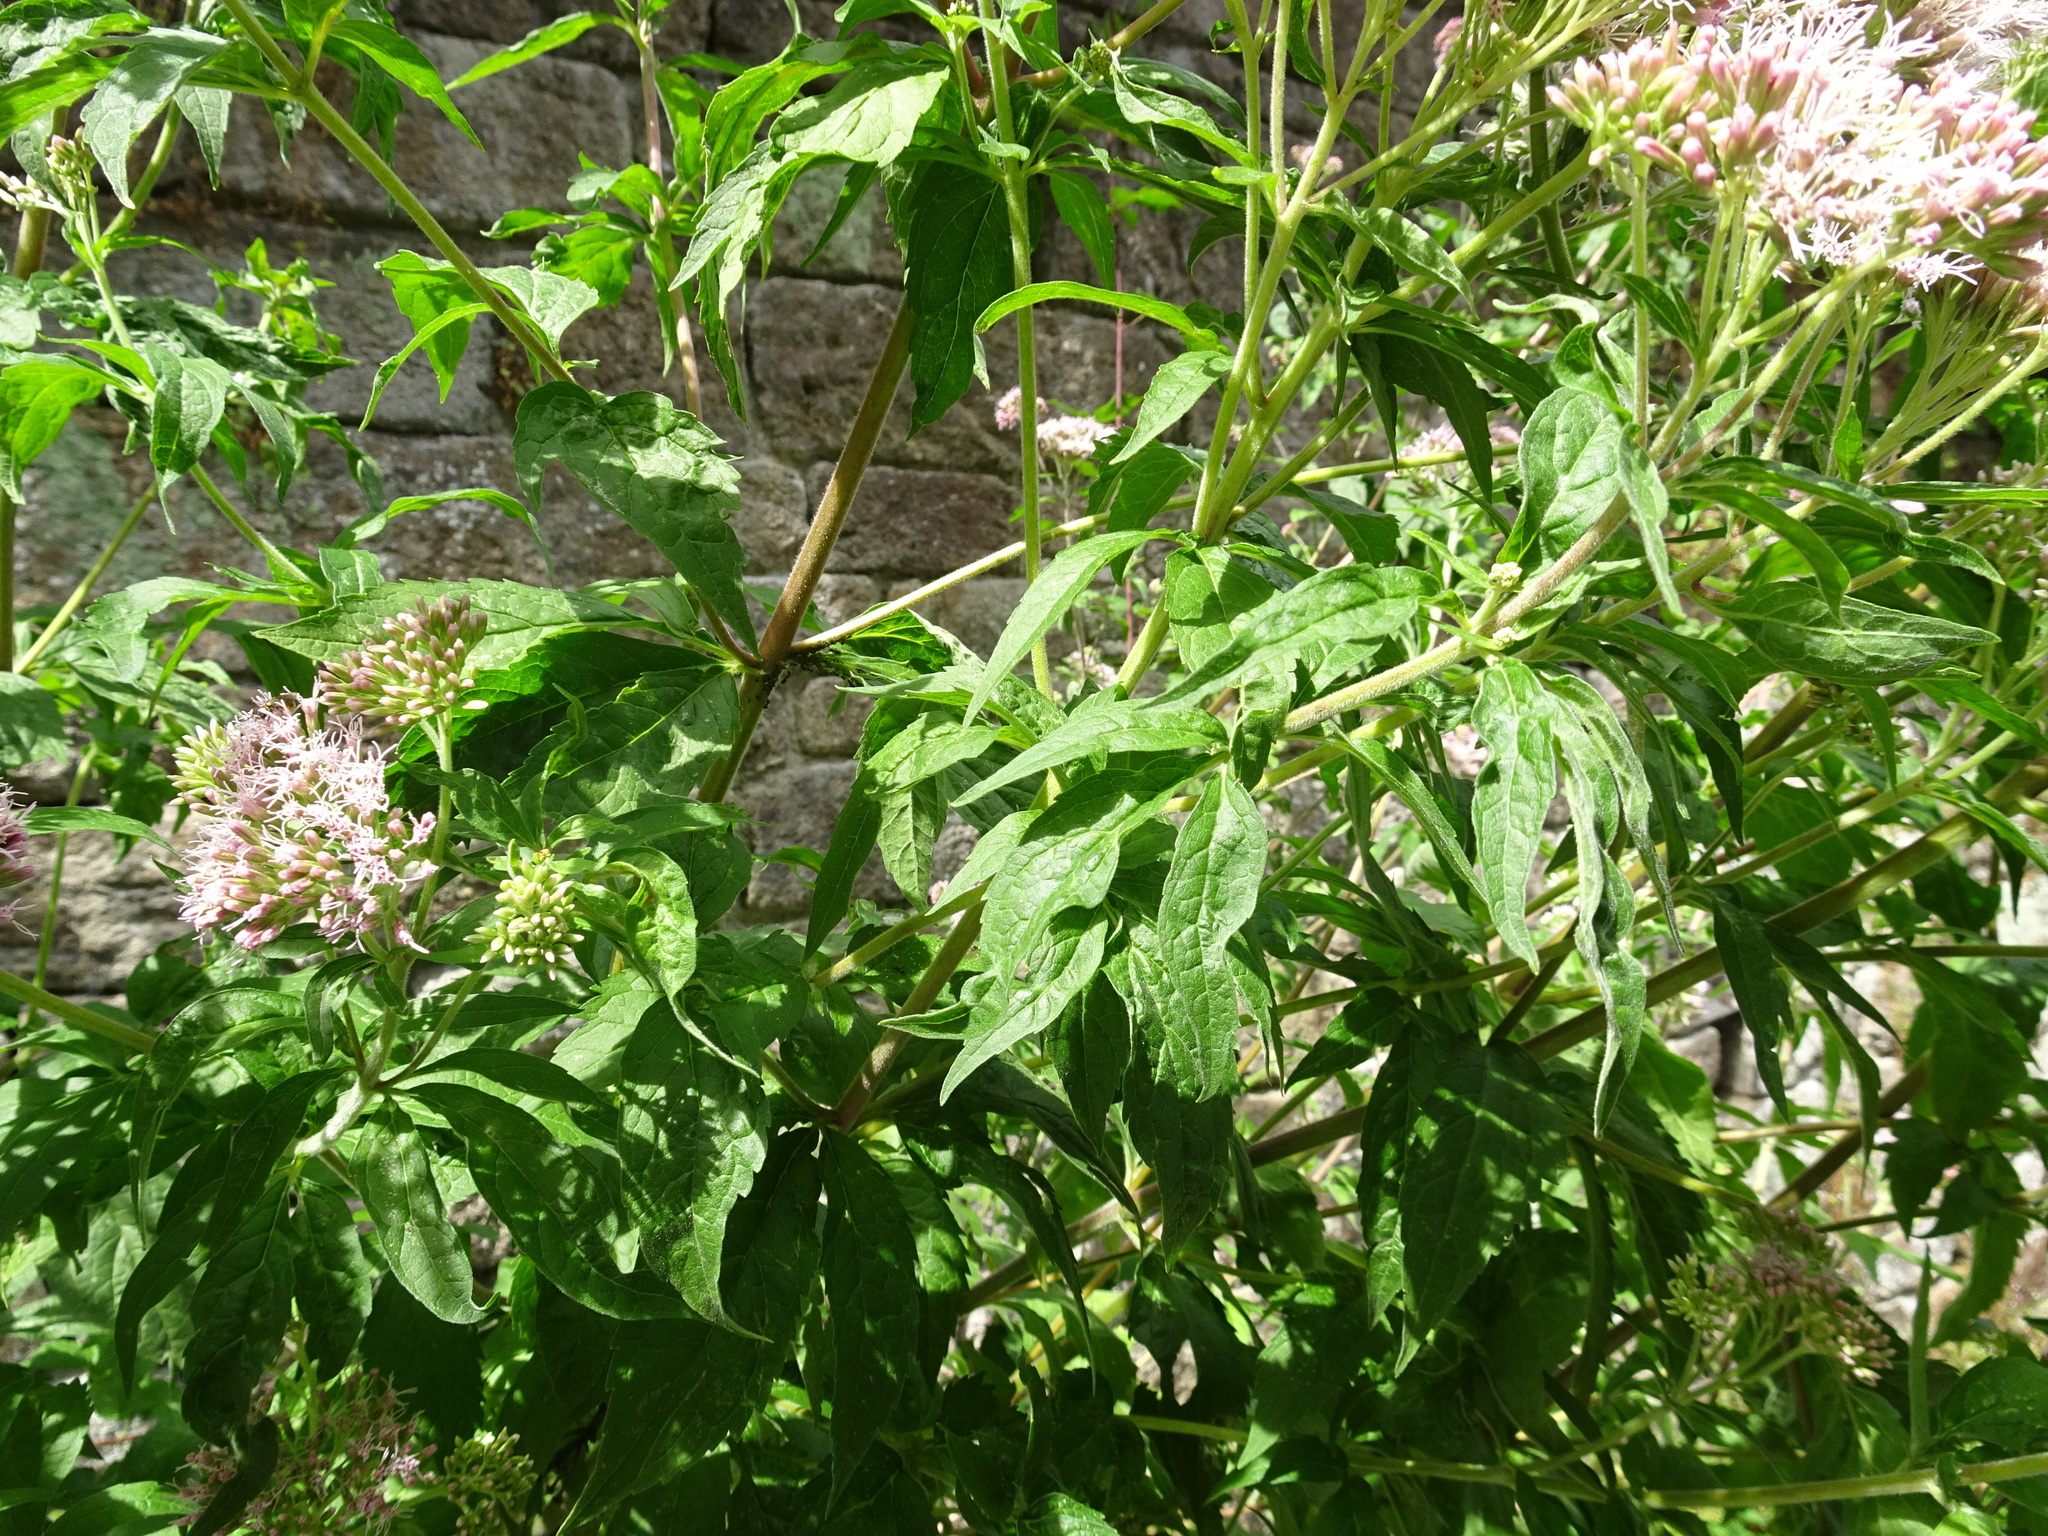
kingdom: Plantae
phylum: Tracheophyta
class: Magnoliopsida
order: Asterales
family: Asteraceae
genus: Eupatorium
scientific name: Eupatorium cannabinum
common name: Hemp-agrimony
